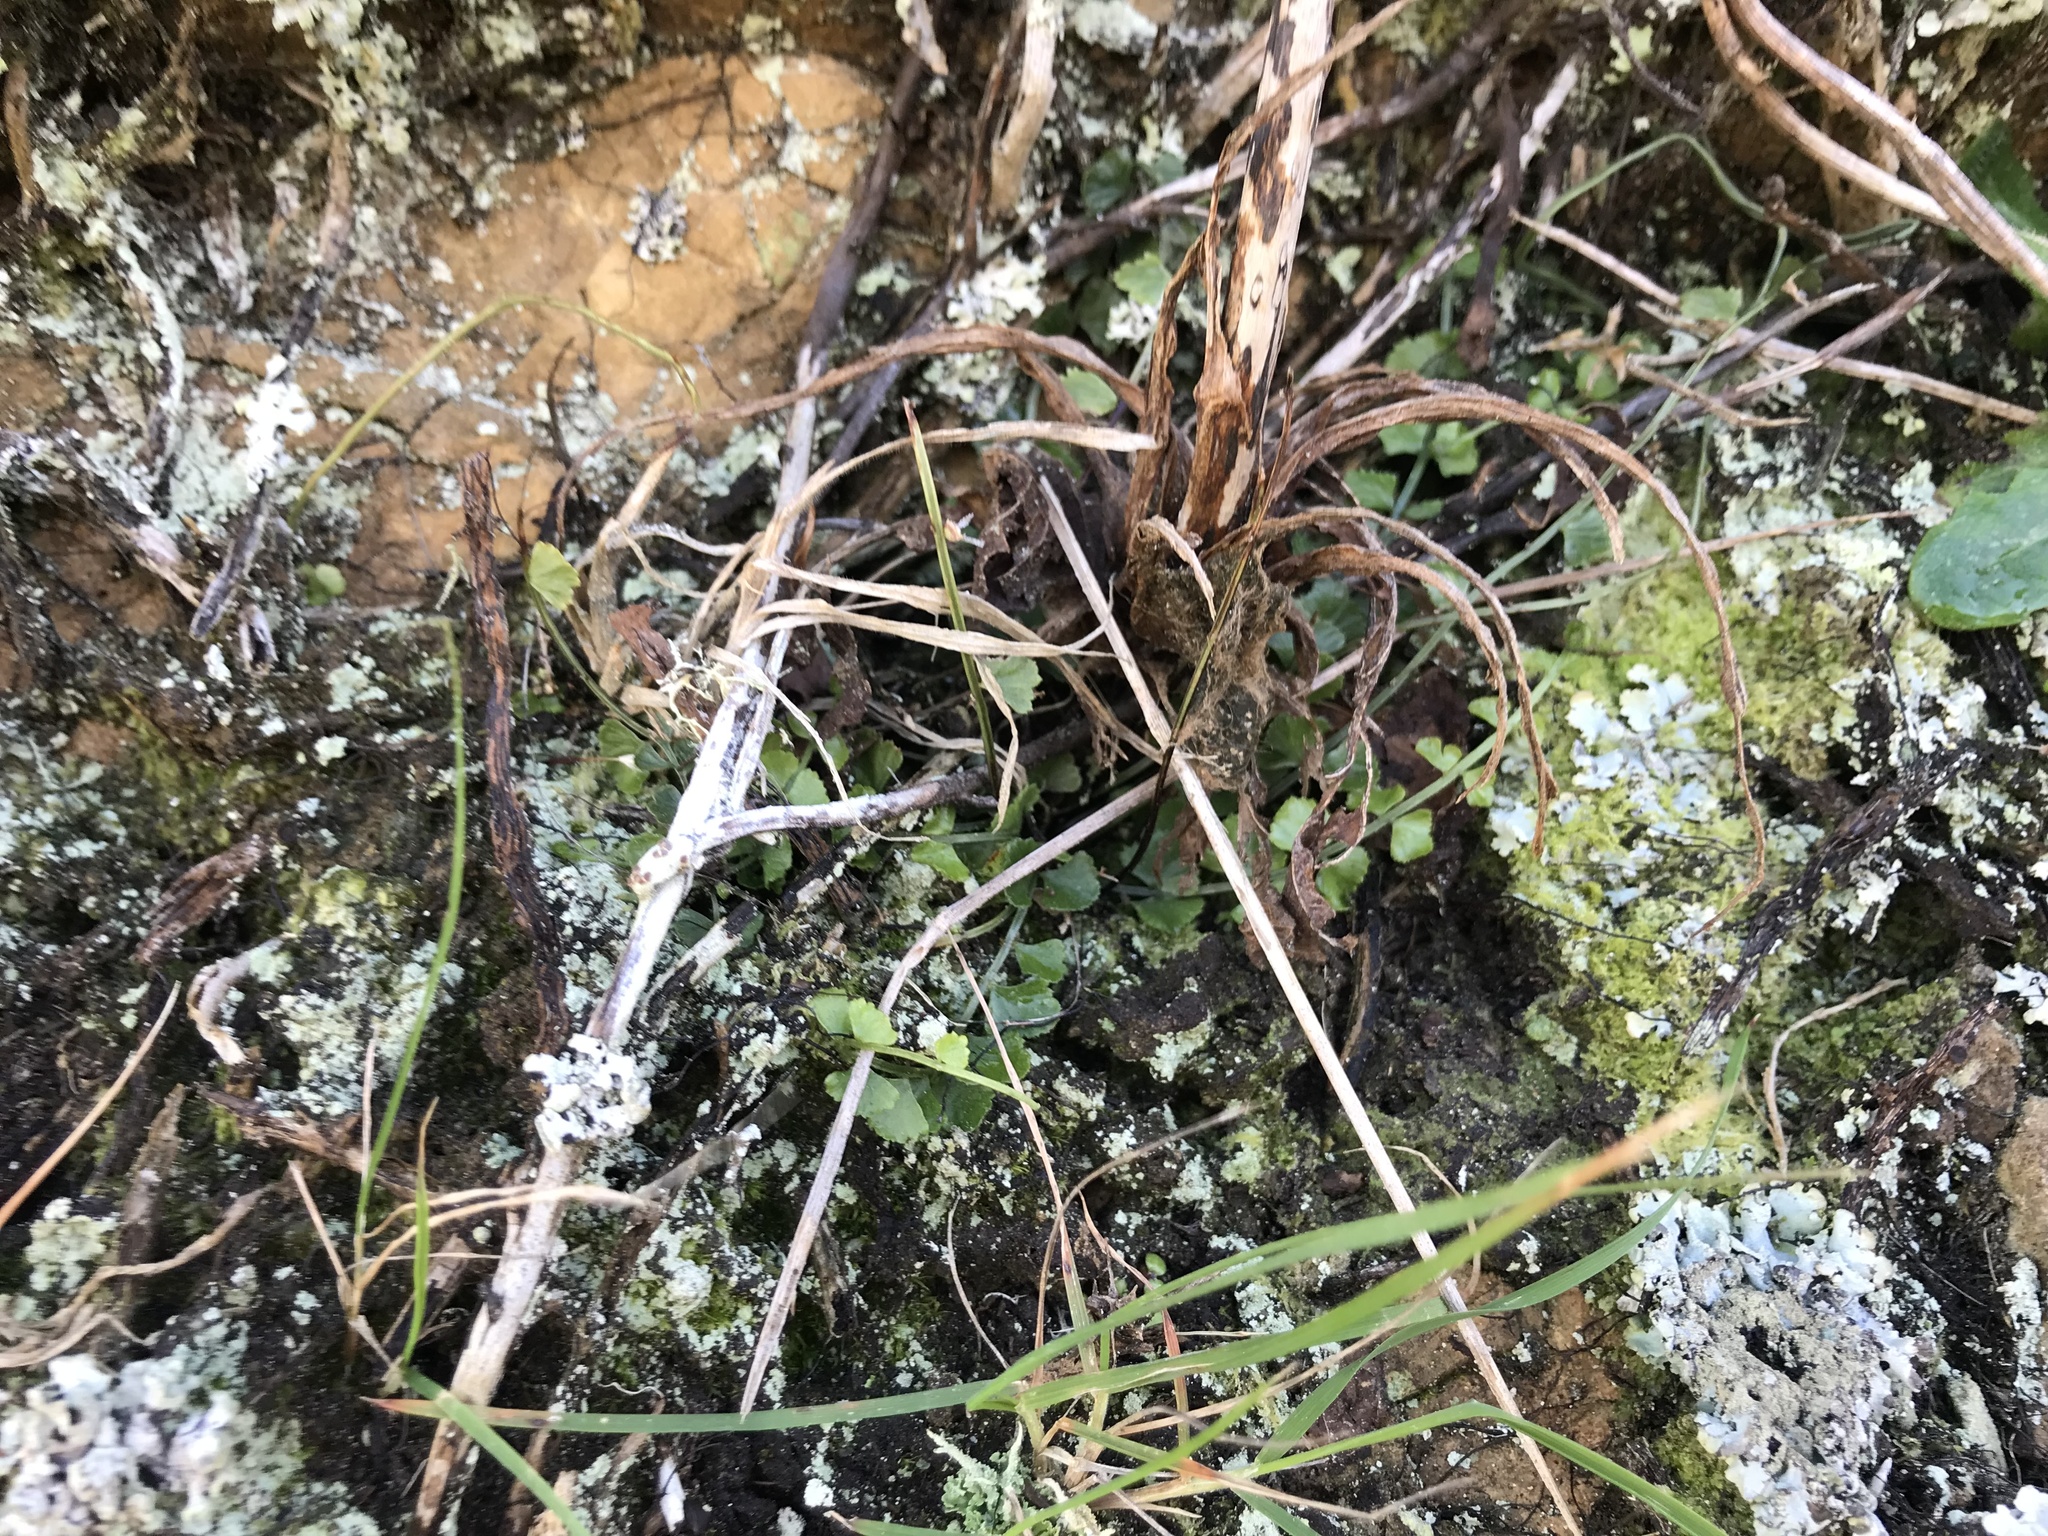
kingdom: Plantae
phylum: Tracheophyta
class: Polypodiopsida
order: Polypodiales
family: Aspleniaceae
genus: Asplenium
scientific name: Asplenium flabellifolium
